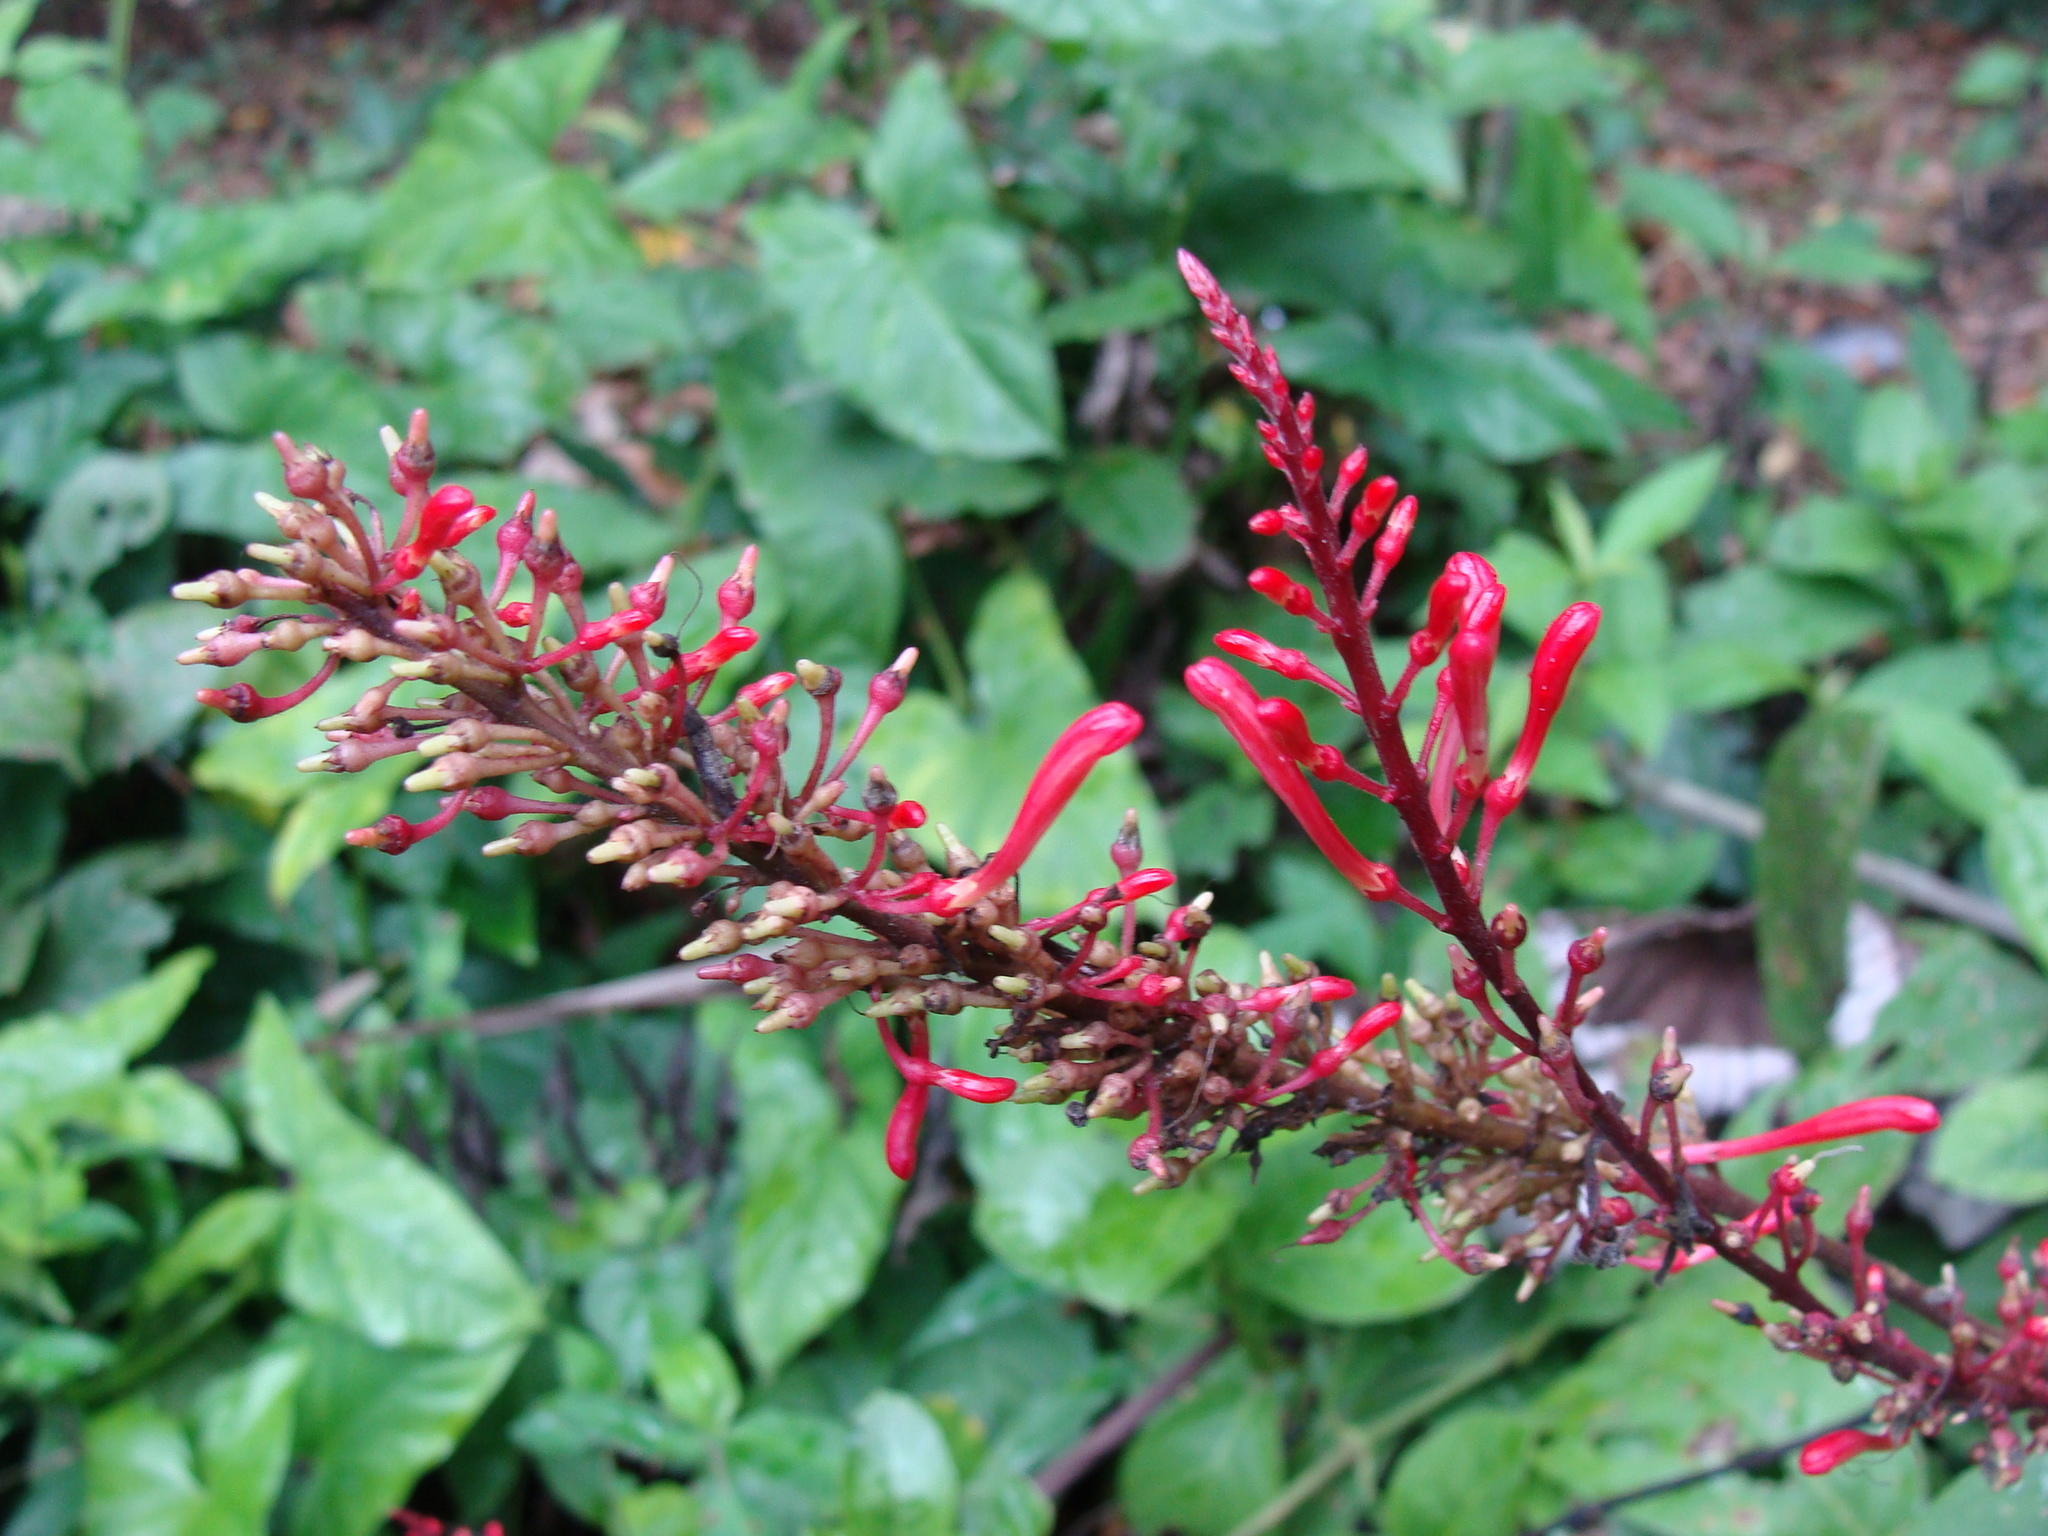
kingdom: Plantae
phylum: Tracheophyta
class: Magnoliopsida
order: Lamiales
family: Acanthaceae
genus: Odontonema
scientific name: Odontonema tubaeforme
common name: Firespike
